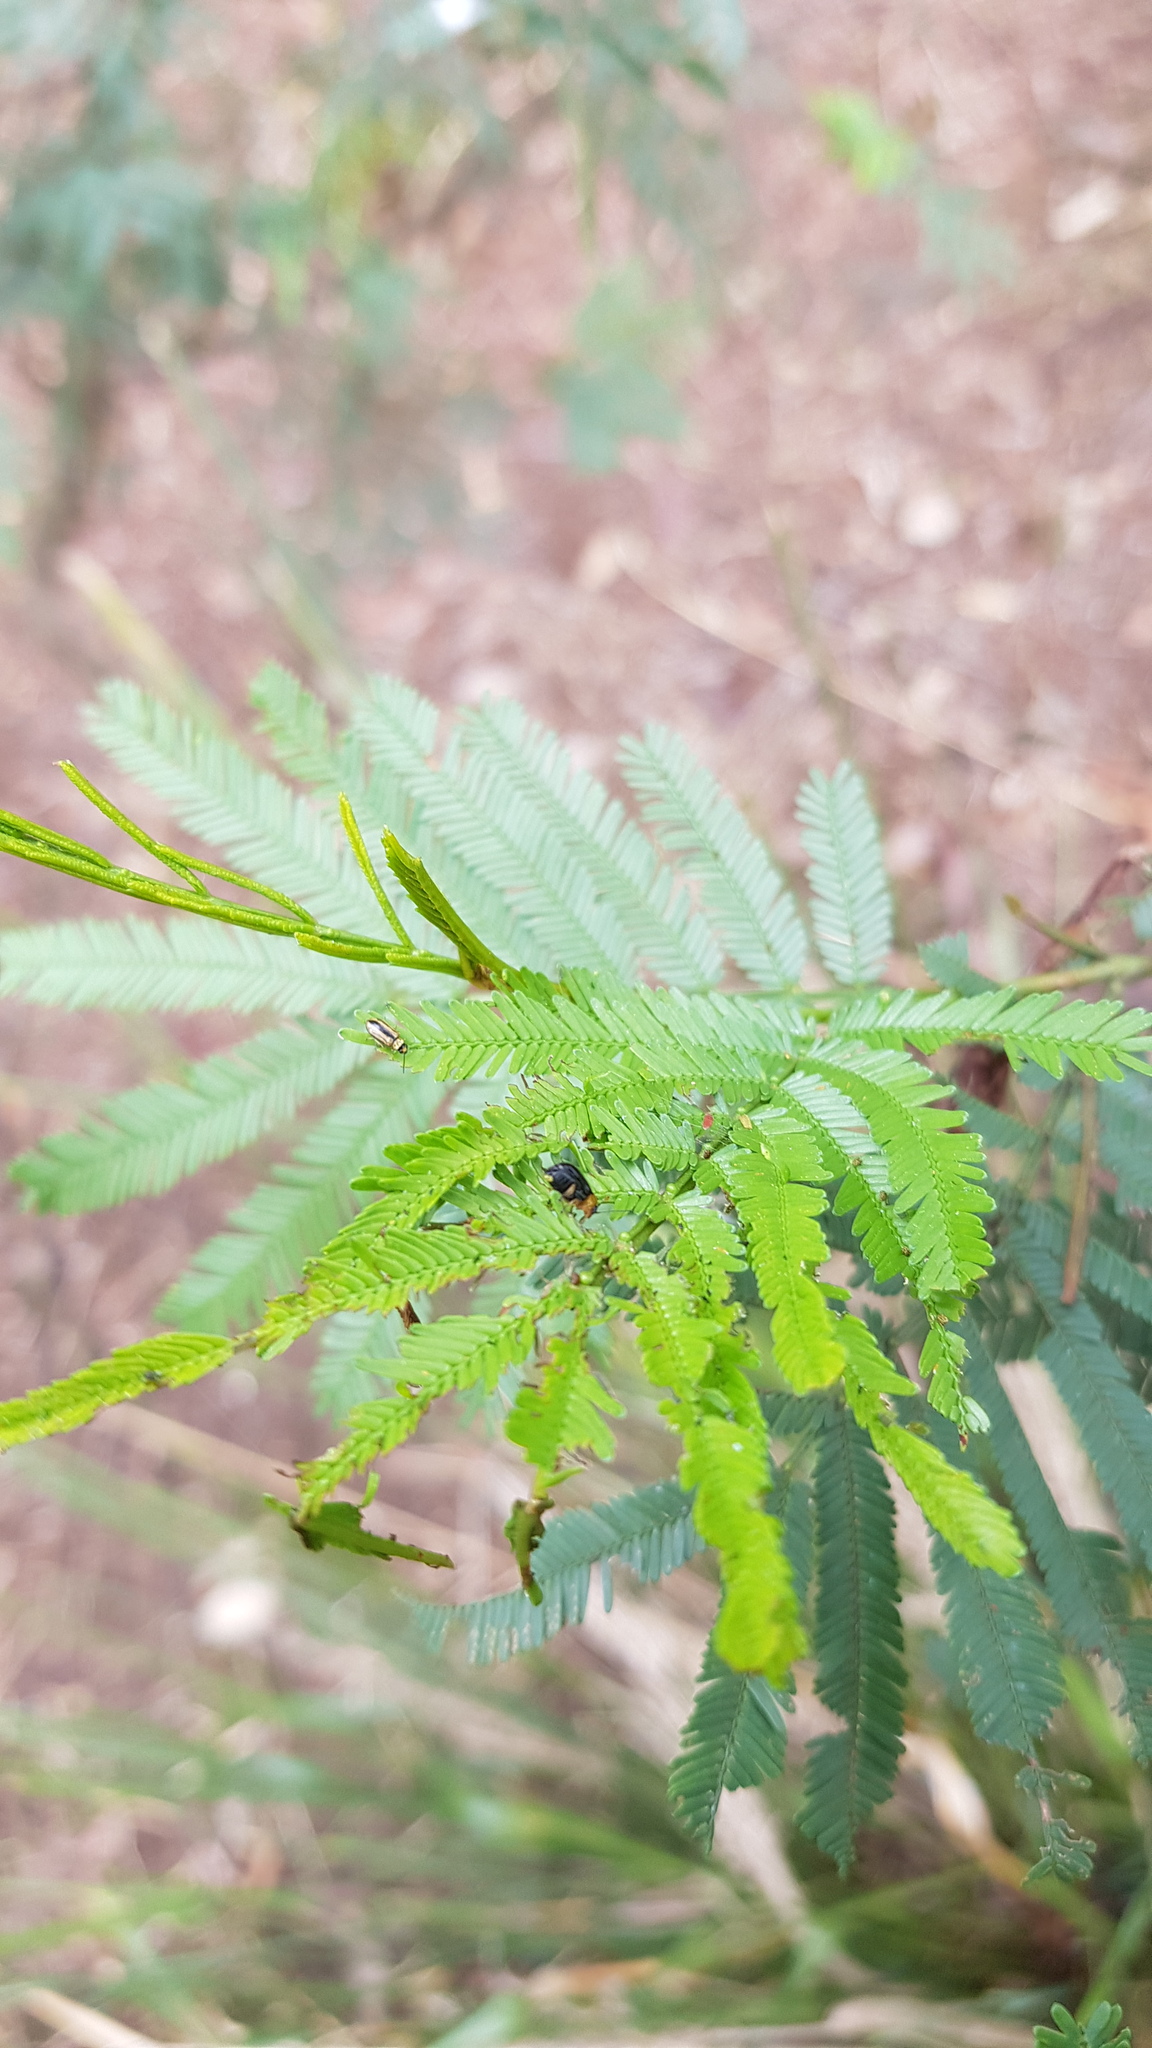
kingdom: Animalia
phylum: Arthropoda
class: Insecta
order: Coleoptera
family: Chrysomelidae
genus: Monolepta
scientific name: Monolepta
